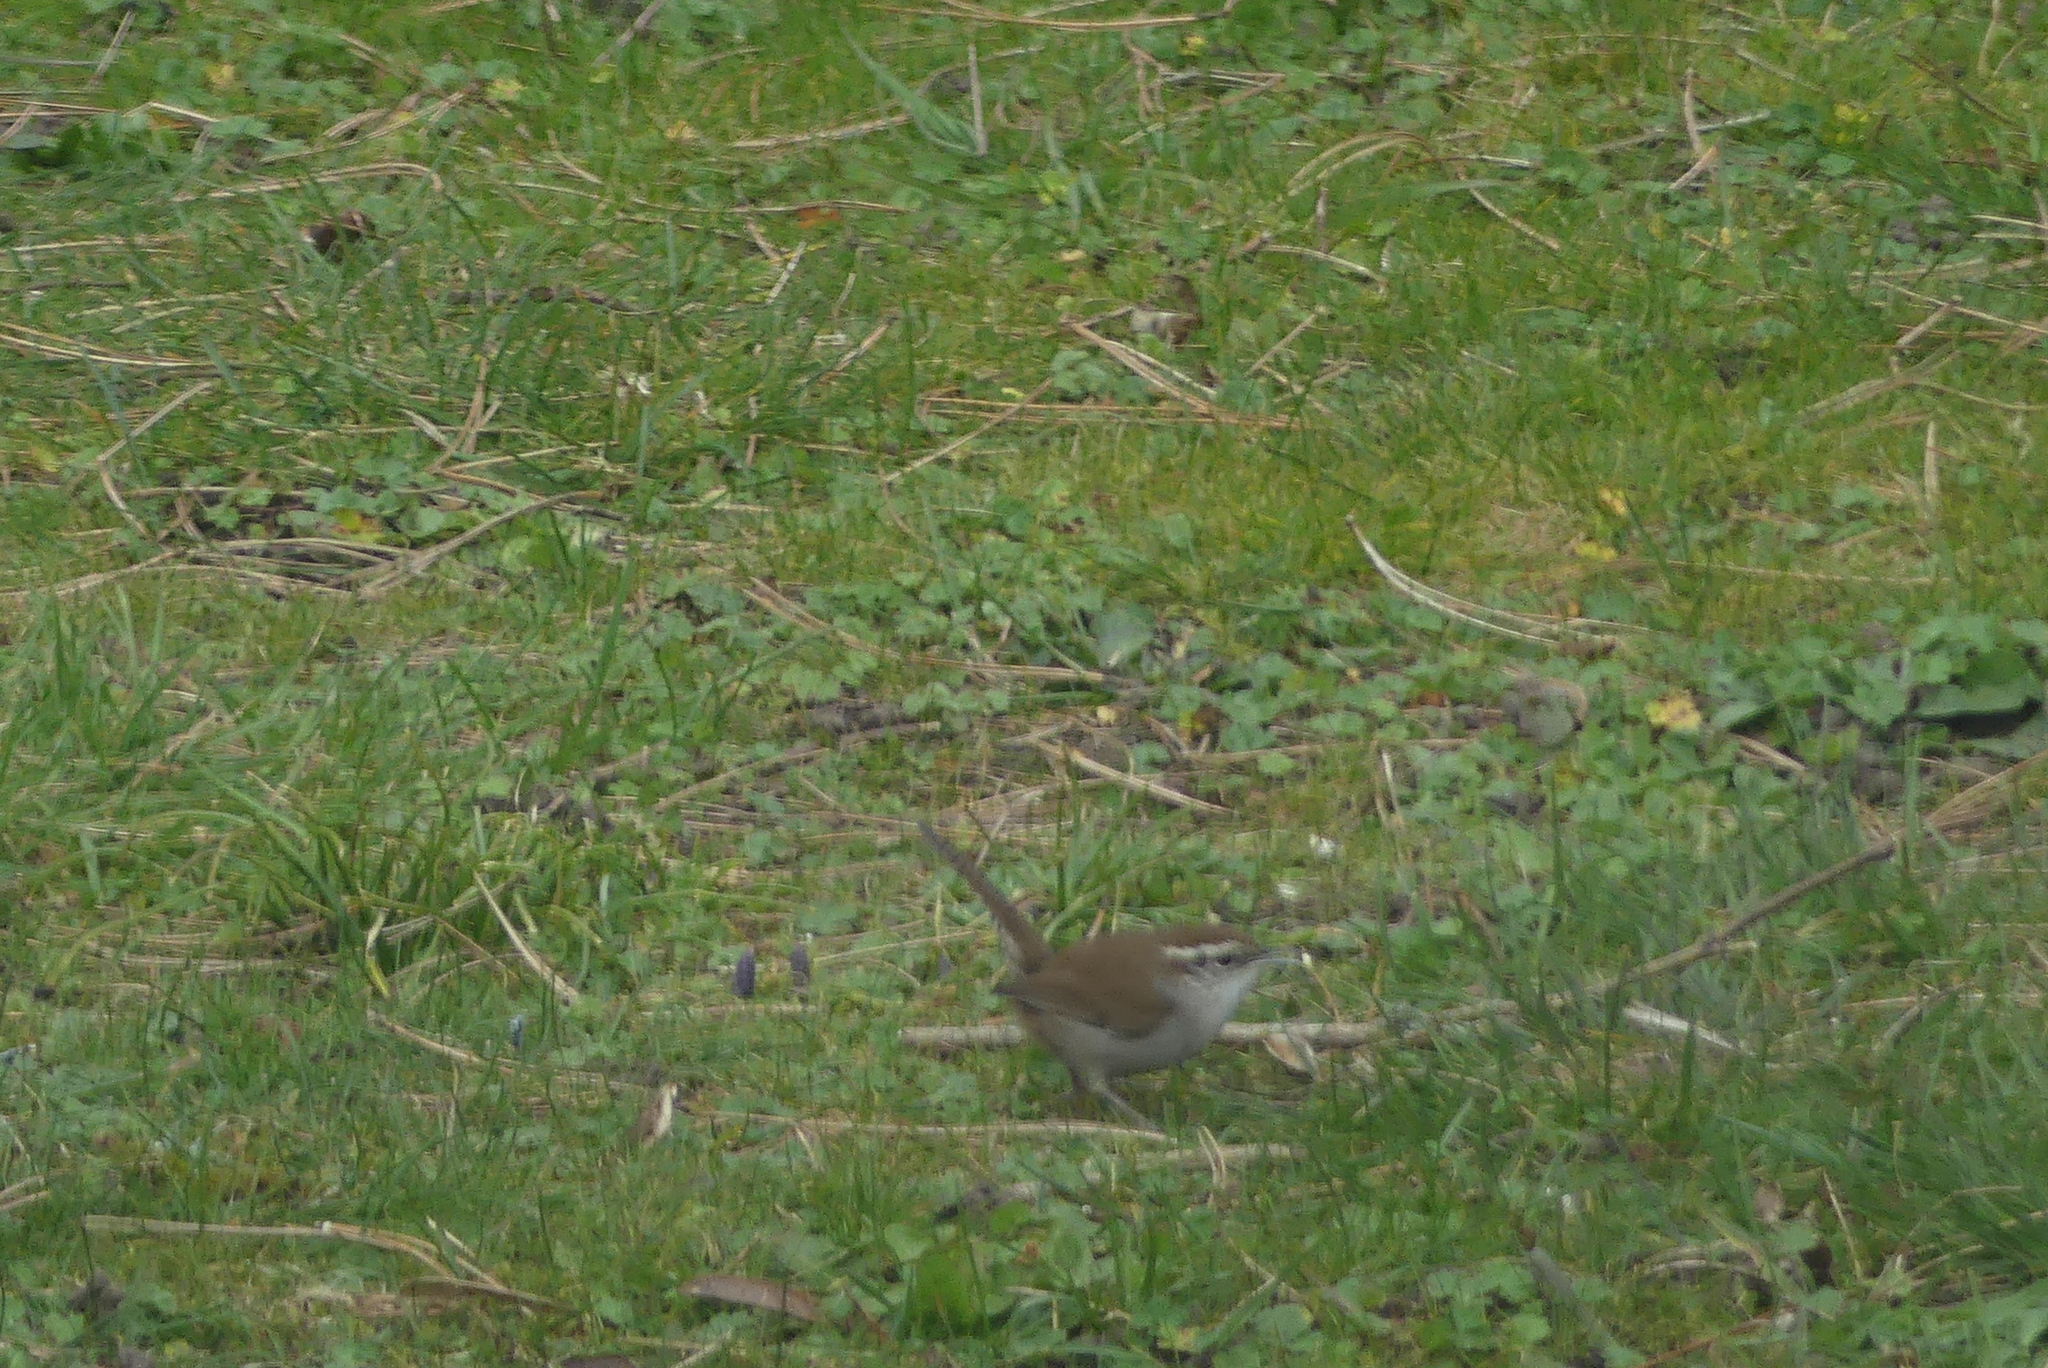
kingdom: Animalia
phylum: Chordata
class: Aves
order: Passeriformes
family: Troglodytidae
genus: Thryomanes
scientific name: Thryomanes bewickii
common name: Bewick's wren
